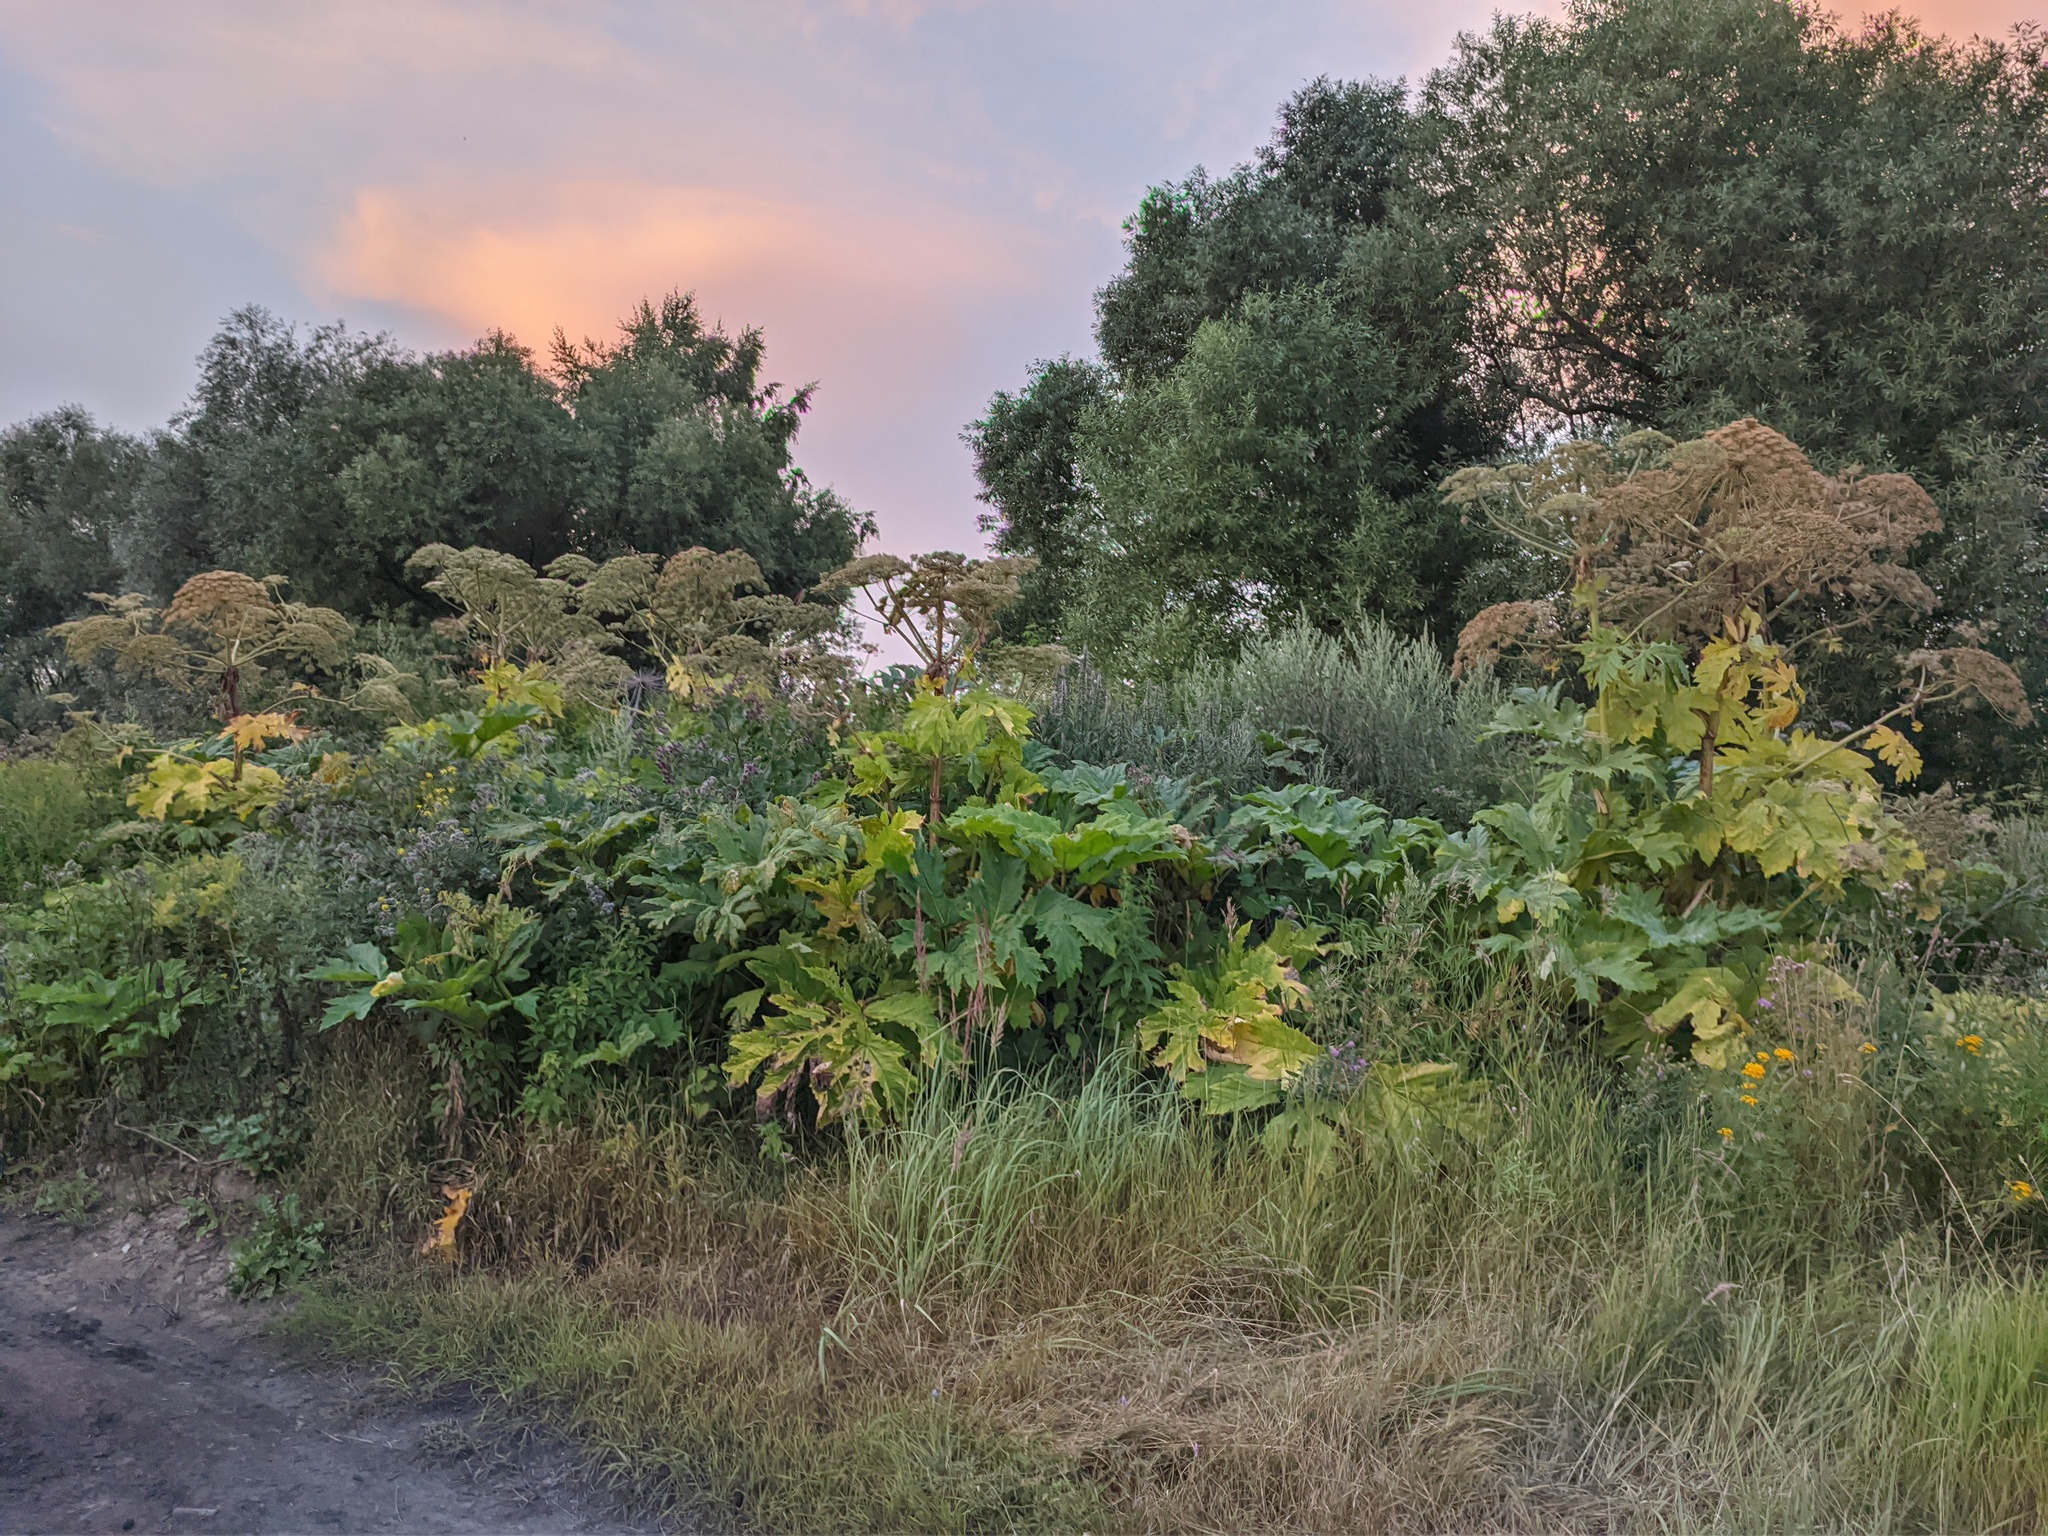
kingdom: Plantae
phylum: Tracheophyta
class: Magnoliopsida
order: Apiales
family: Apiaceae
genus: Heracleum
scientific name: Heracleum sosnowskyi
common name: Sosnowsky's hogweed
